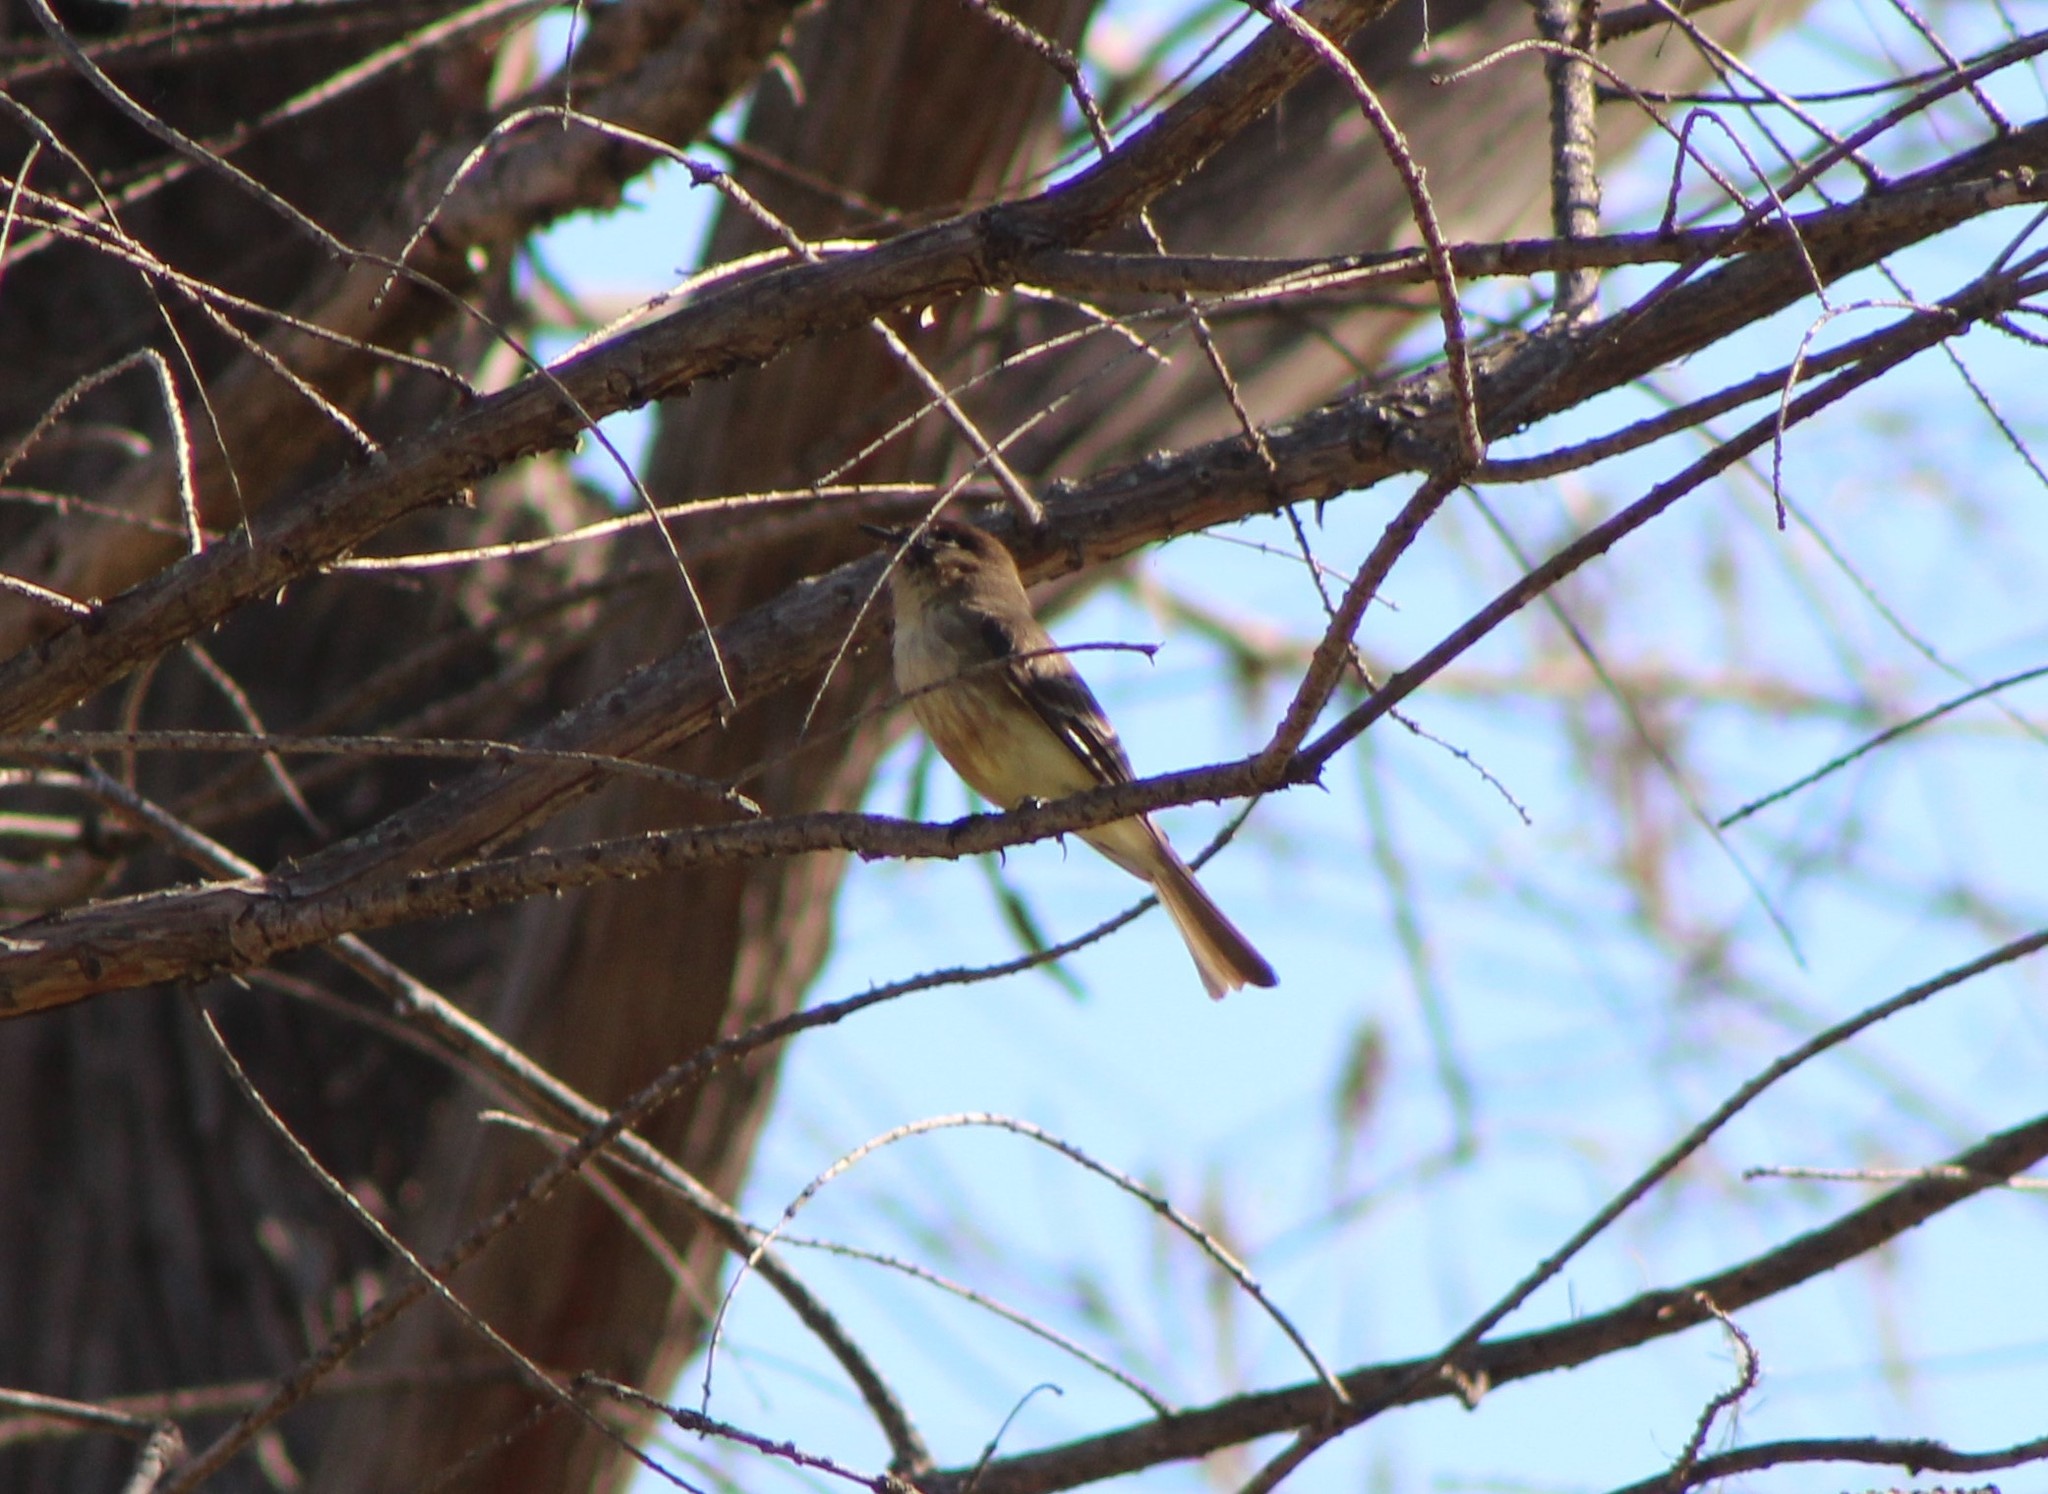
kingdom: Animalia
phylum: Chordata
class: Aves
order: Passeriformes
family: Tyrannidae
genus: Sayornis
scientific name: Sayornis phoebe
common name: Eastern phoebe
